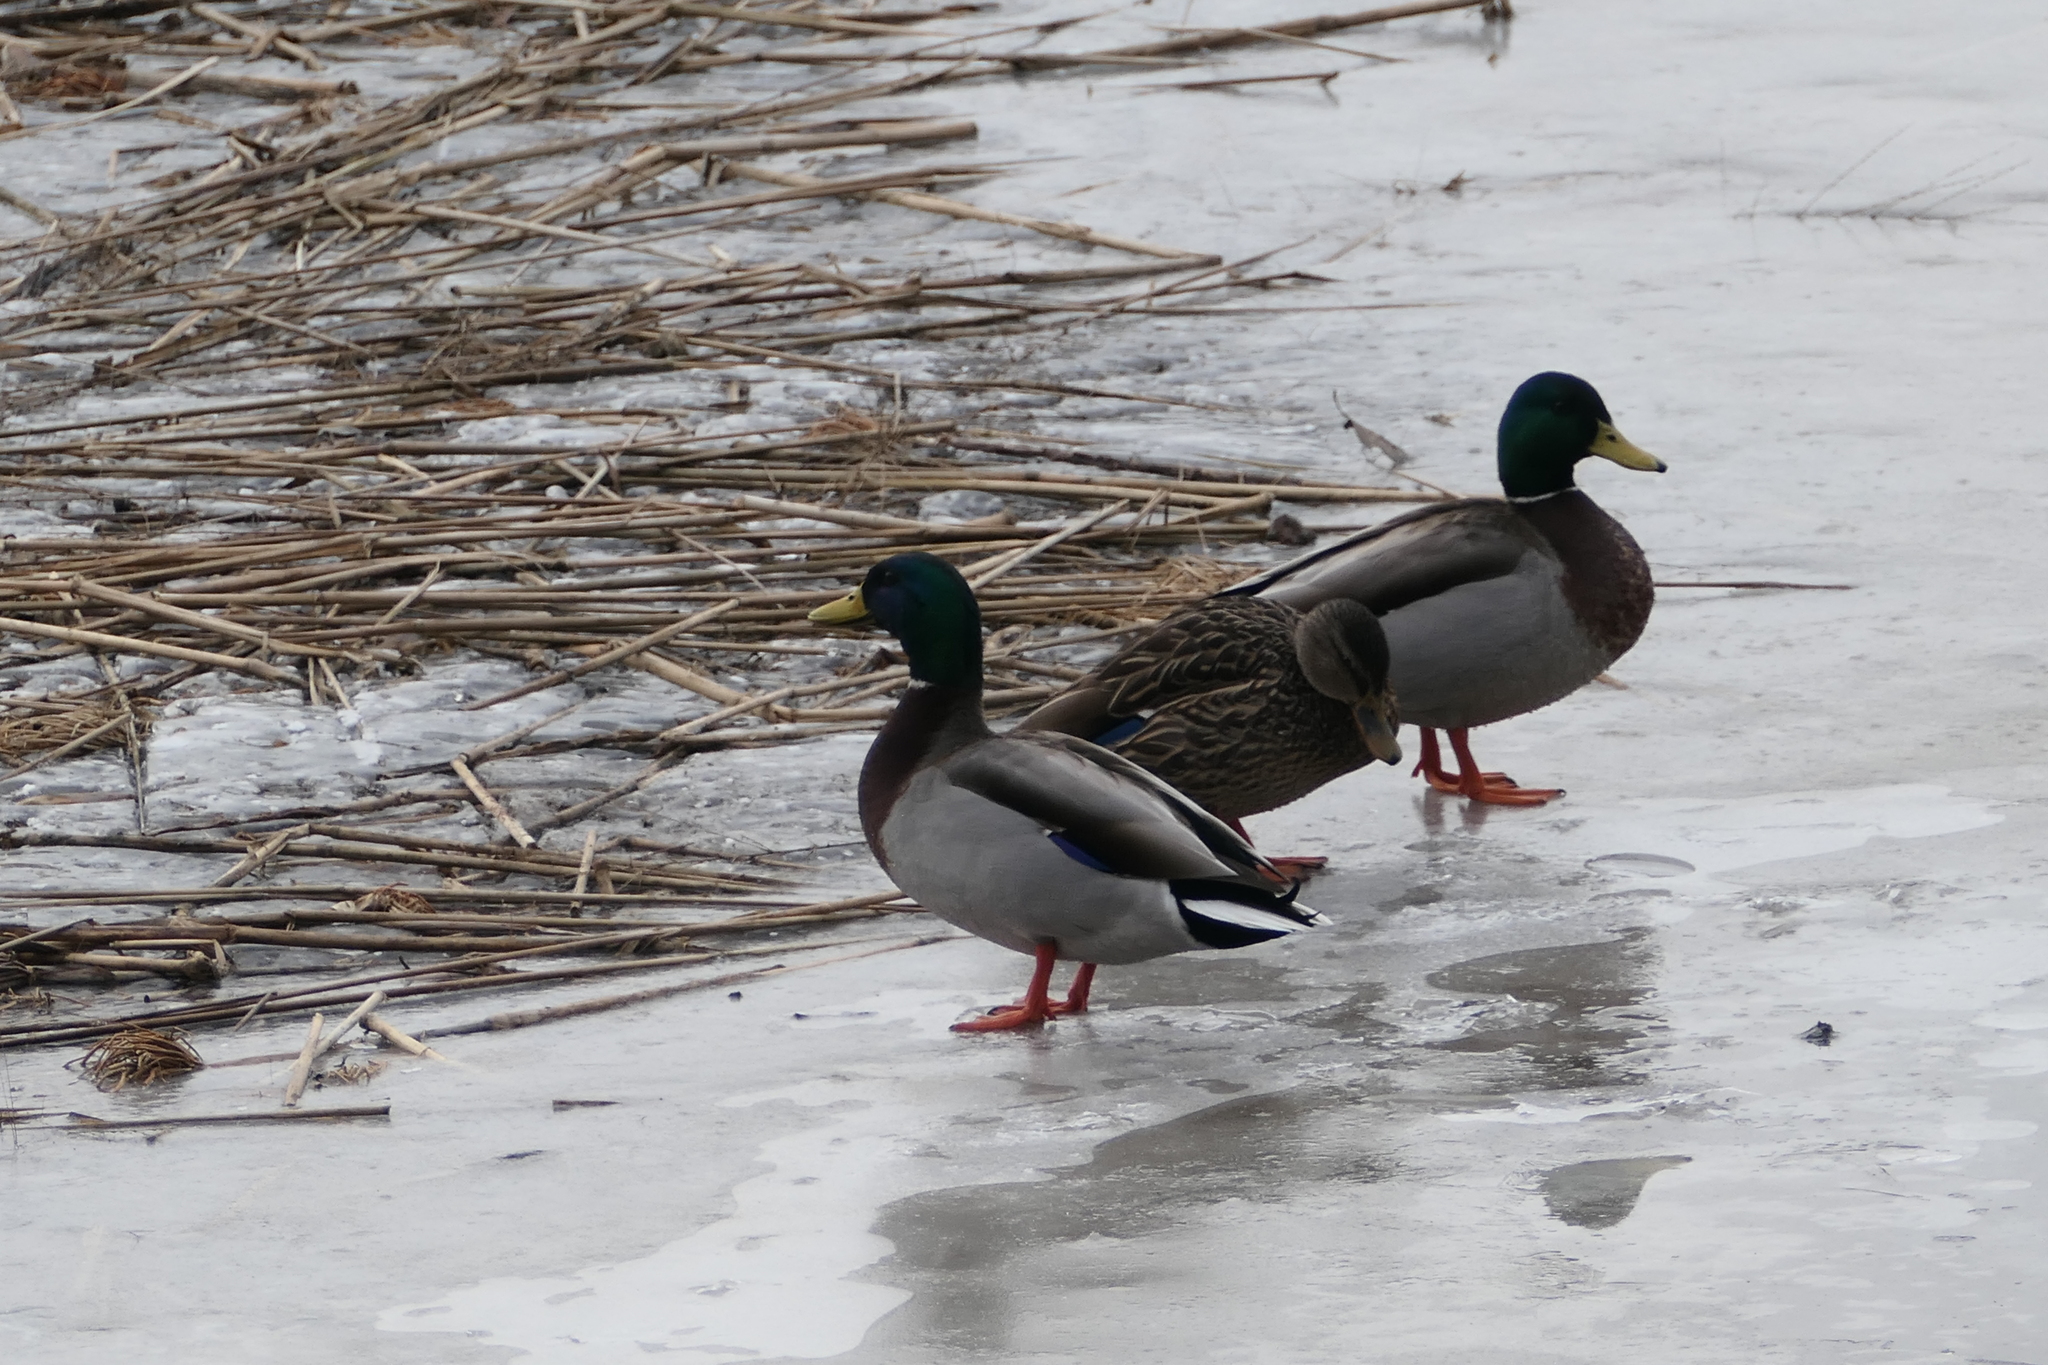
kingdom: Animalia
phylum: Chordata
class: Aves
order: Anseriformes
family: Anatidae
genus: Anas
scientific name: Anas platyrhynchos
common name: Mallard
